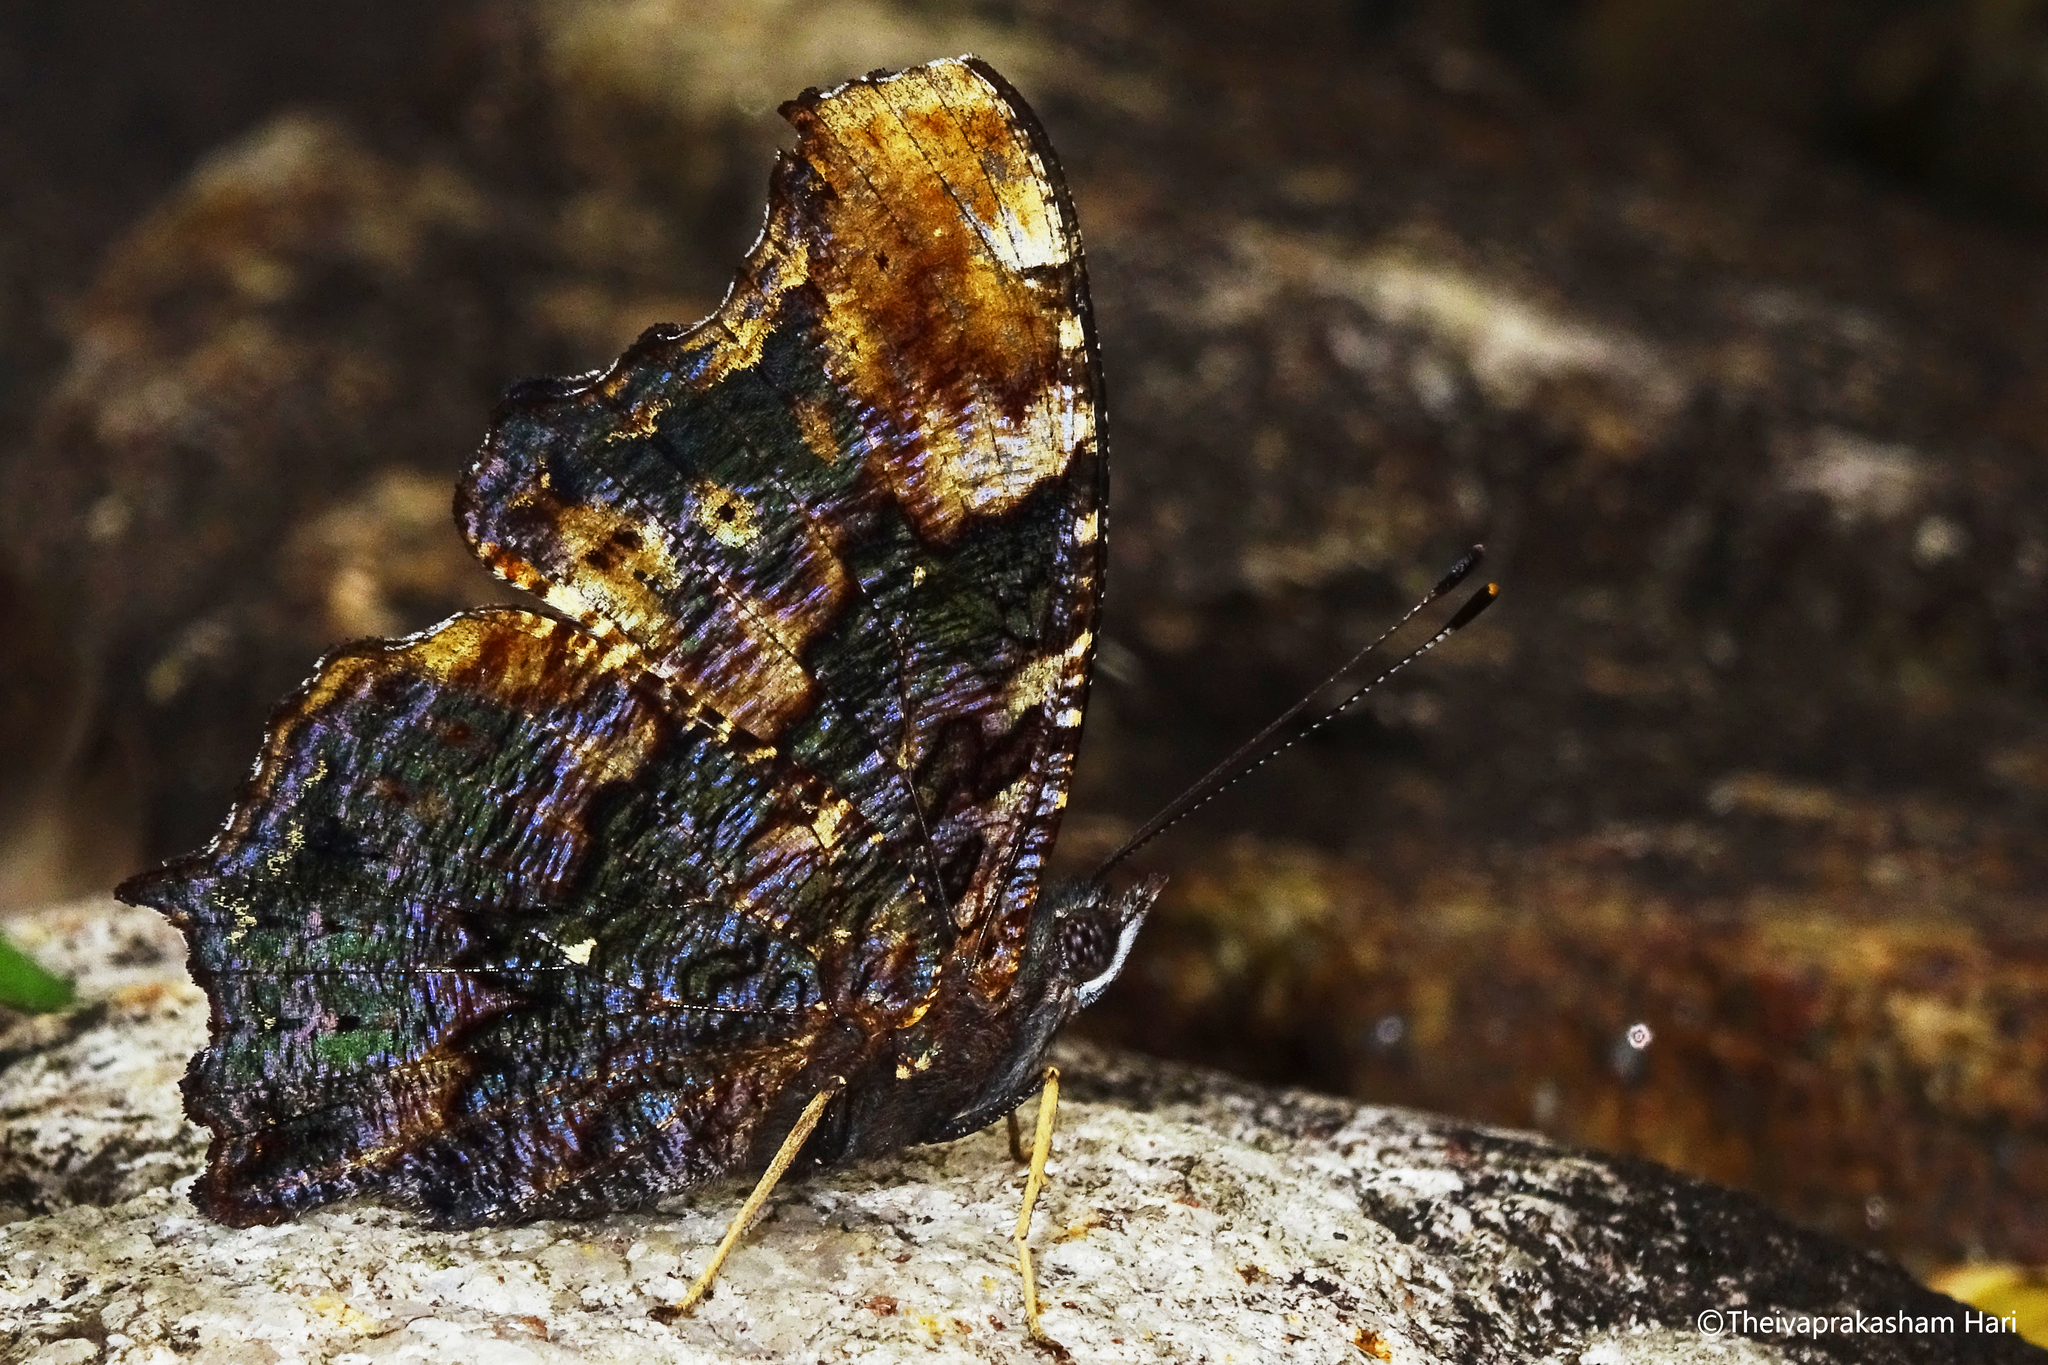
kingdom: Animalia
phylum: Arthropoda
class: Insecta
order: Lepidoptera
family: Nymphalidae
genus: Vanessa
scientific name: Vanessa Kaniska canace
